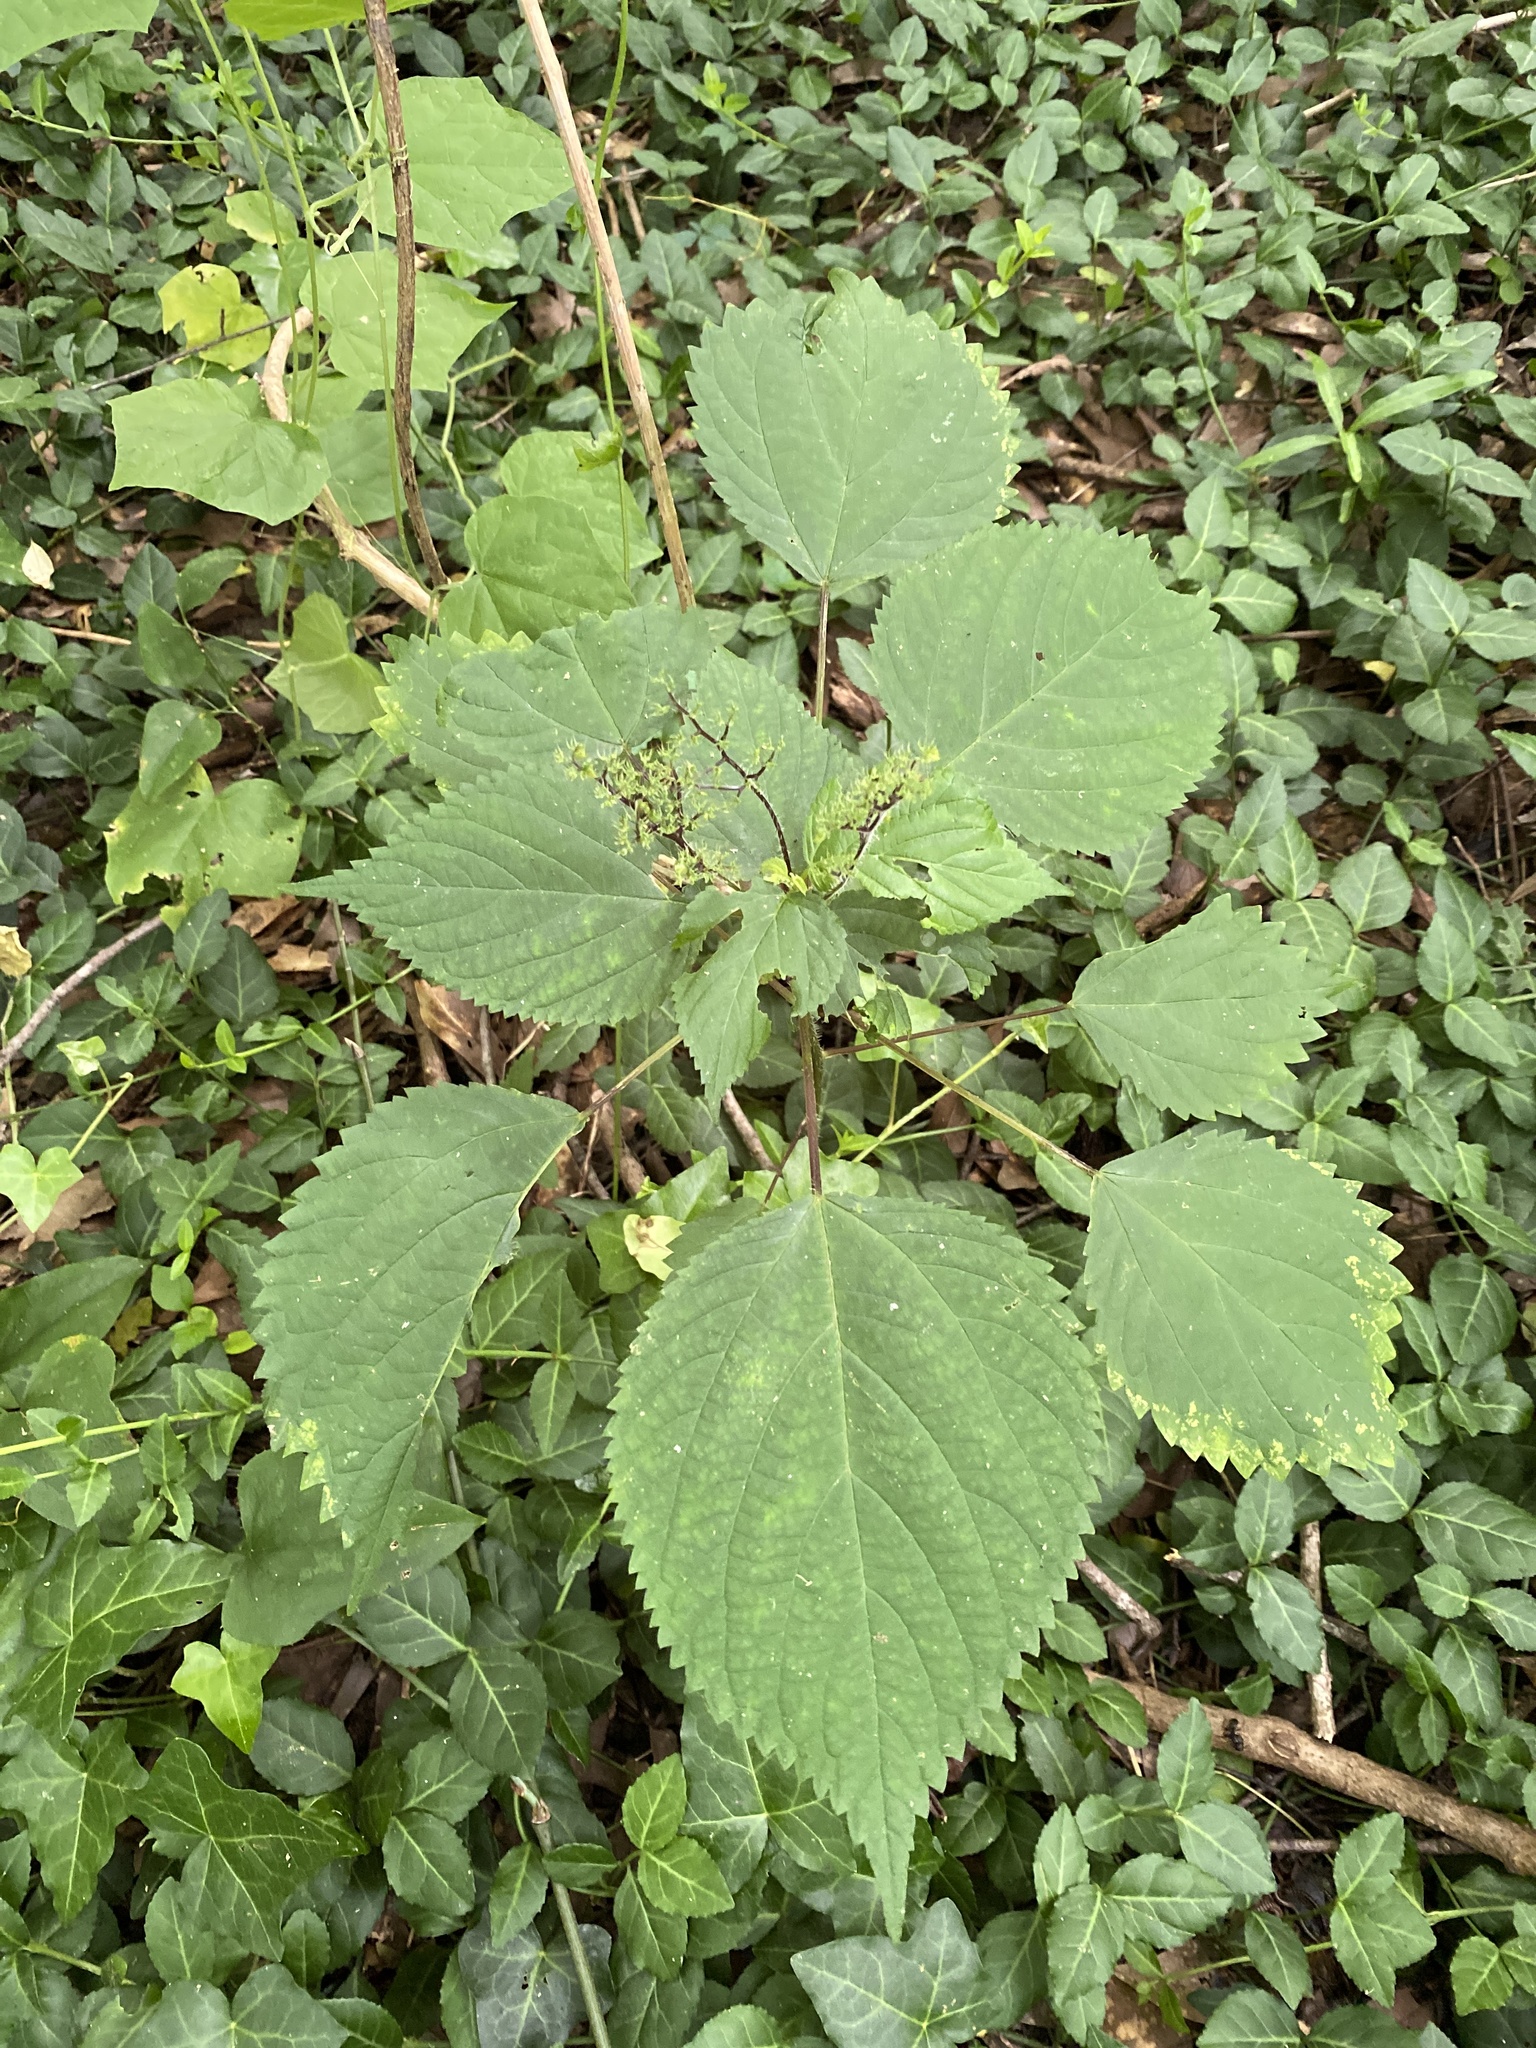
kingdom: Plantae
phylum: Tracheophyta
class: Magnoliopsida
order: Rosales
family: Urticaceae
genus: Laportea
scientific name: Laportea canadensis
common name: Canada nettle
